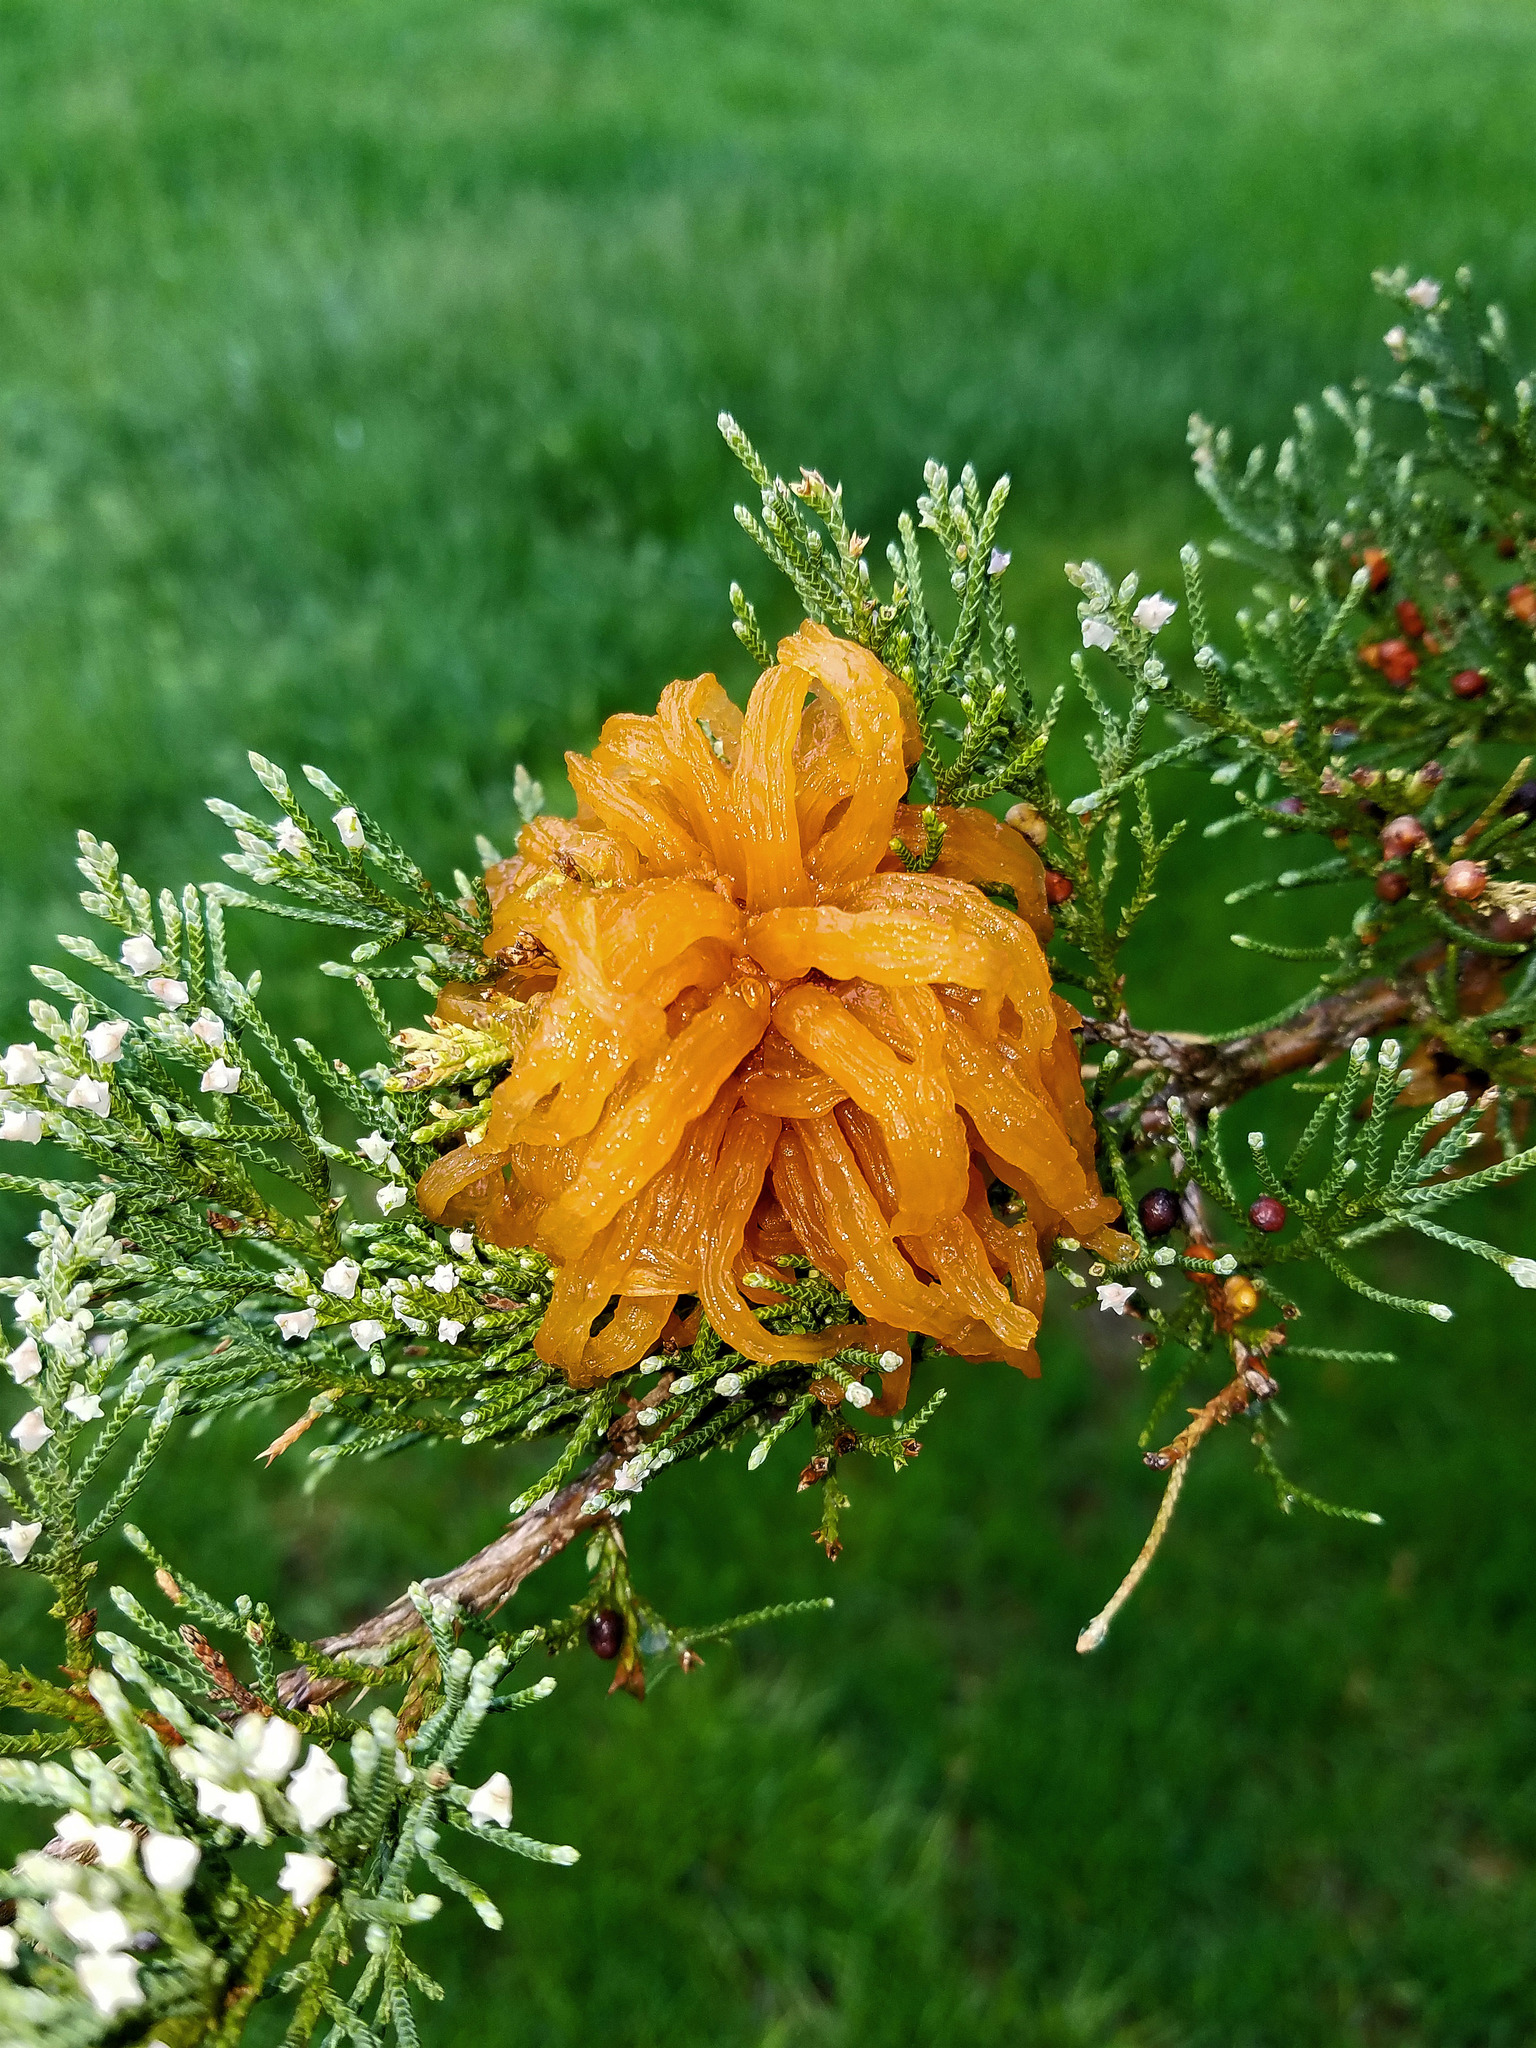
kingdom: Fungi
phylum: Basidiomycota
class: Pucciniomycetes
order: Pucciniales
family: Gymnosporangiaceae
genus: Gymnosporangium
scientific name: Gymnosporangium juniperi-virginianae
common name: Juniper-apple rust
